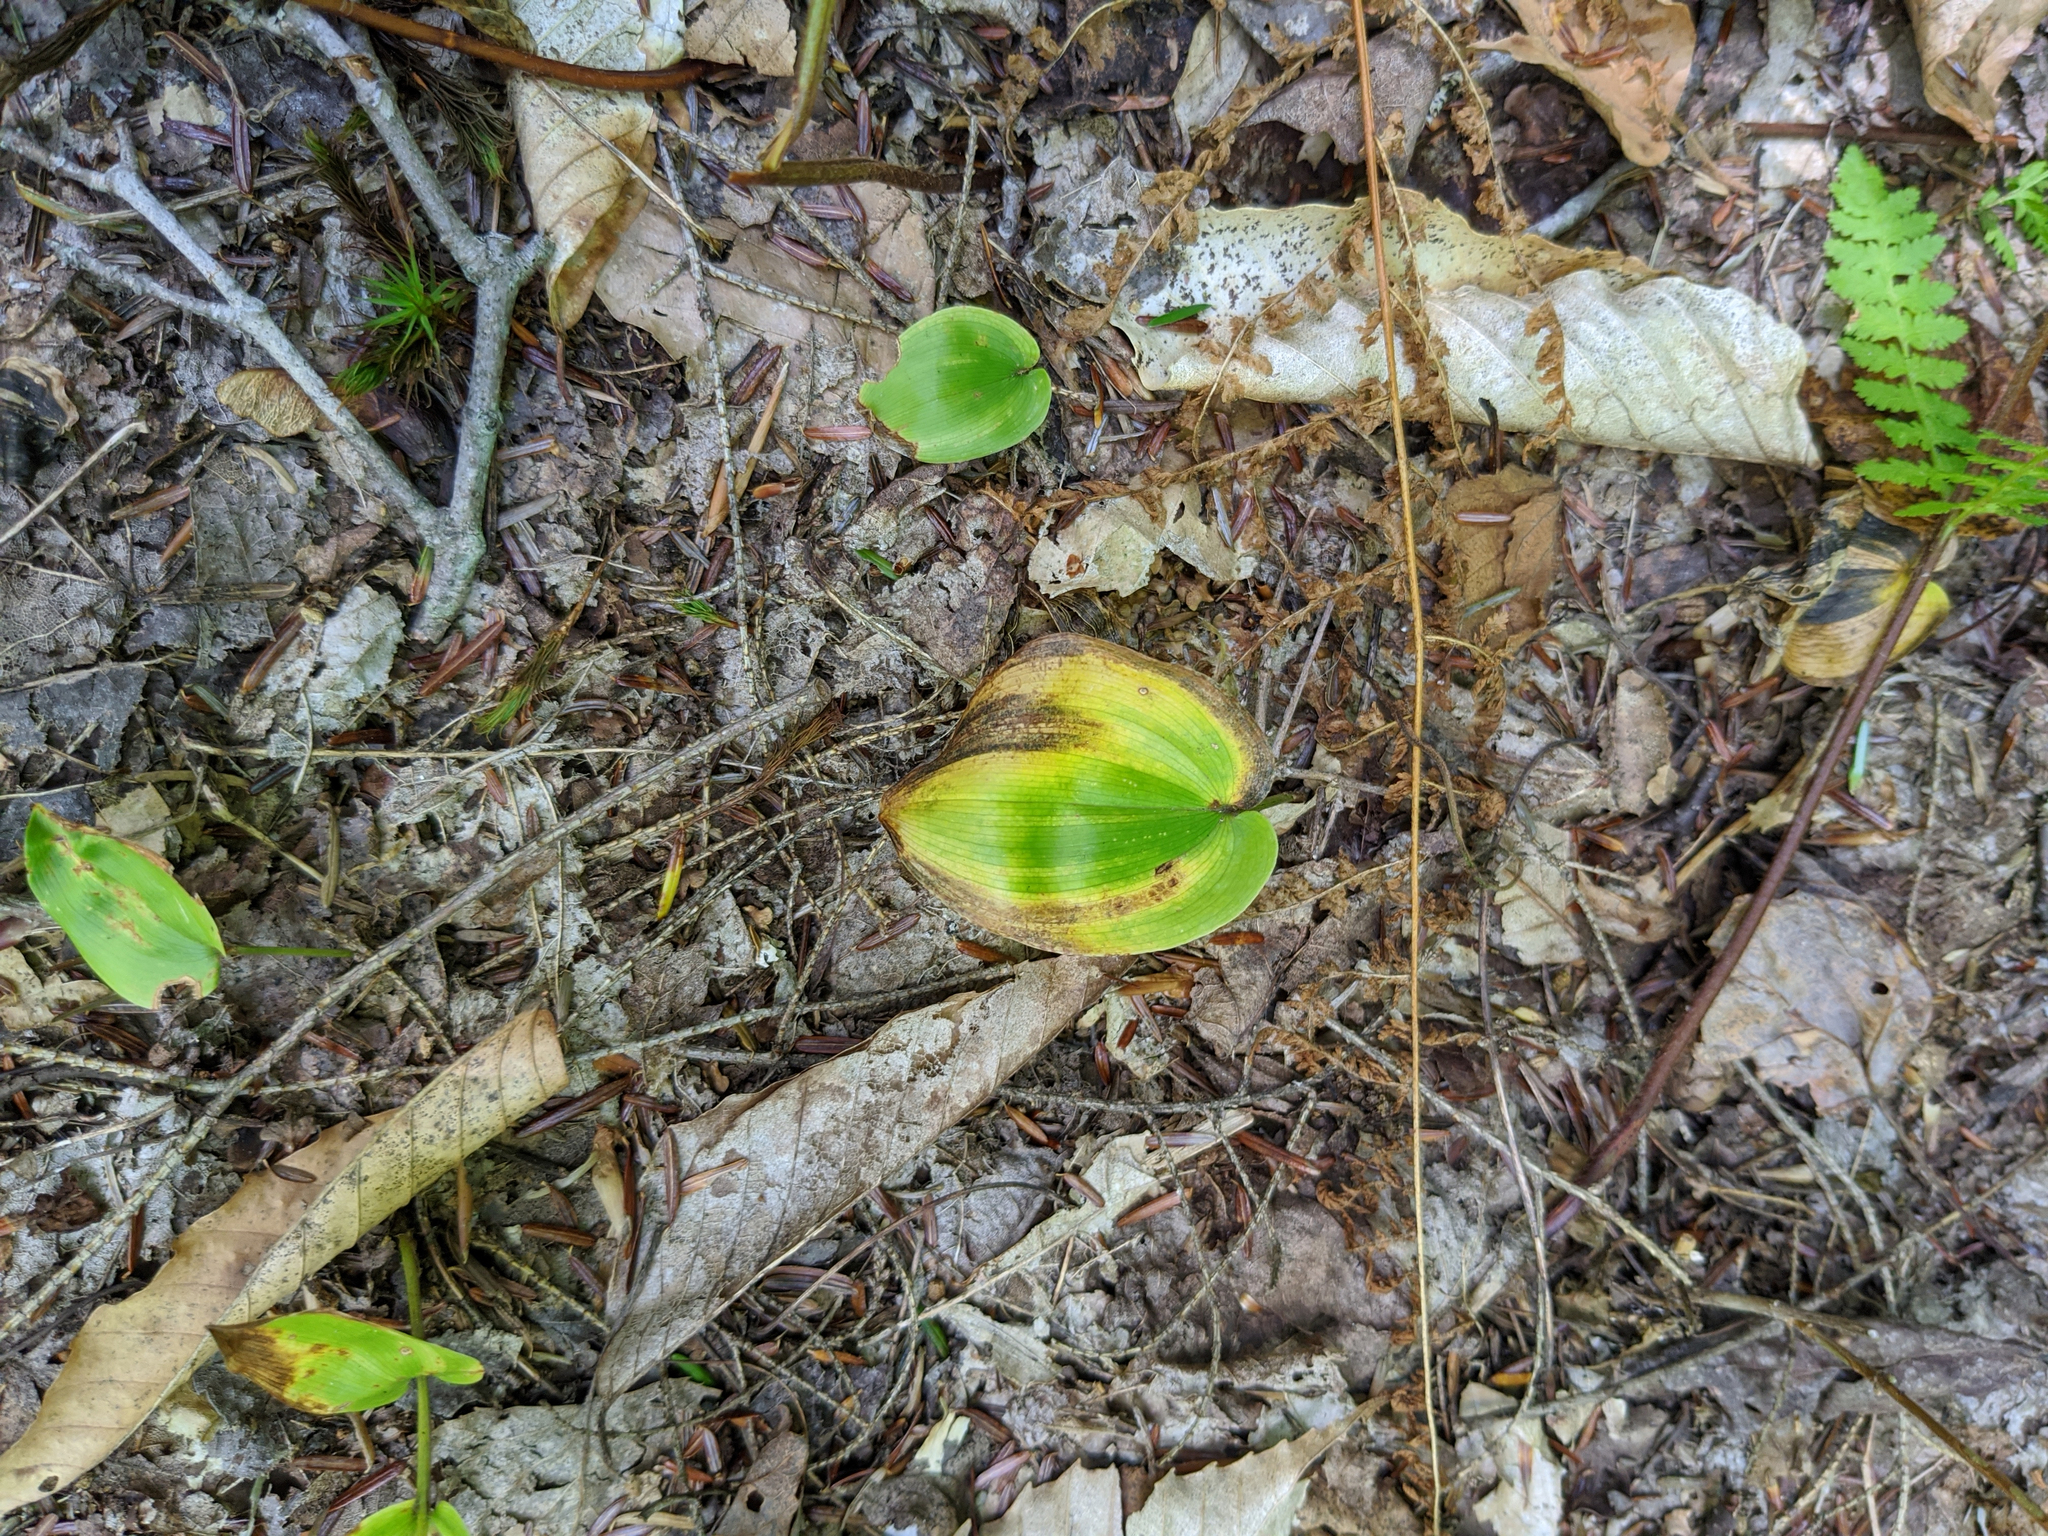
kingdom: Plantae
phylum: Tracheophyta
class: Liliopsida
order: Asparagales
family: Asparagaceae
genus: Maianthemum
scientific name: Maianthemum canadense
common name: False lily-of-the-valley
